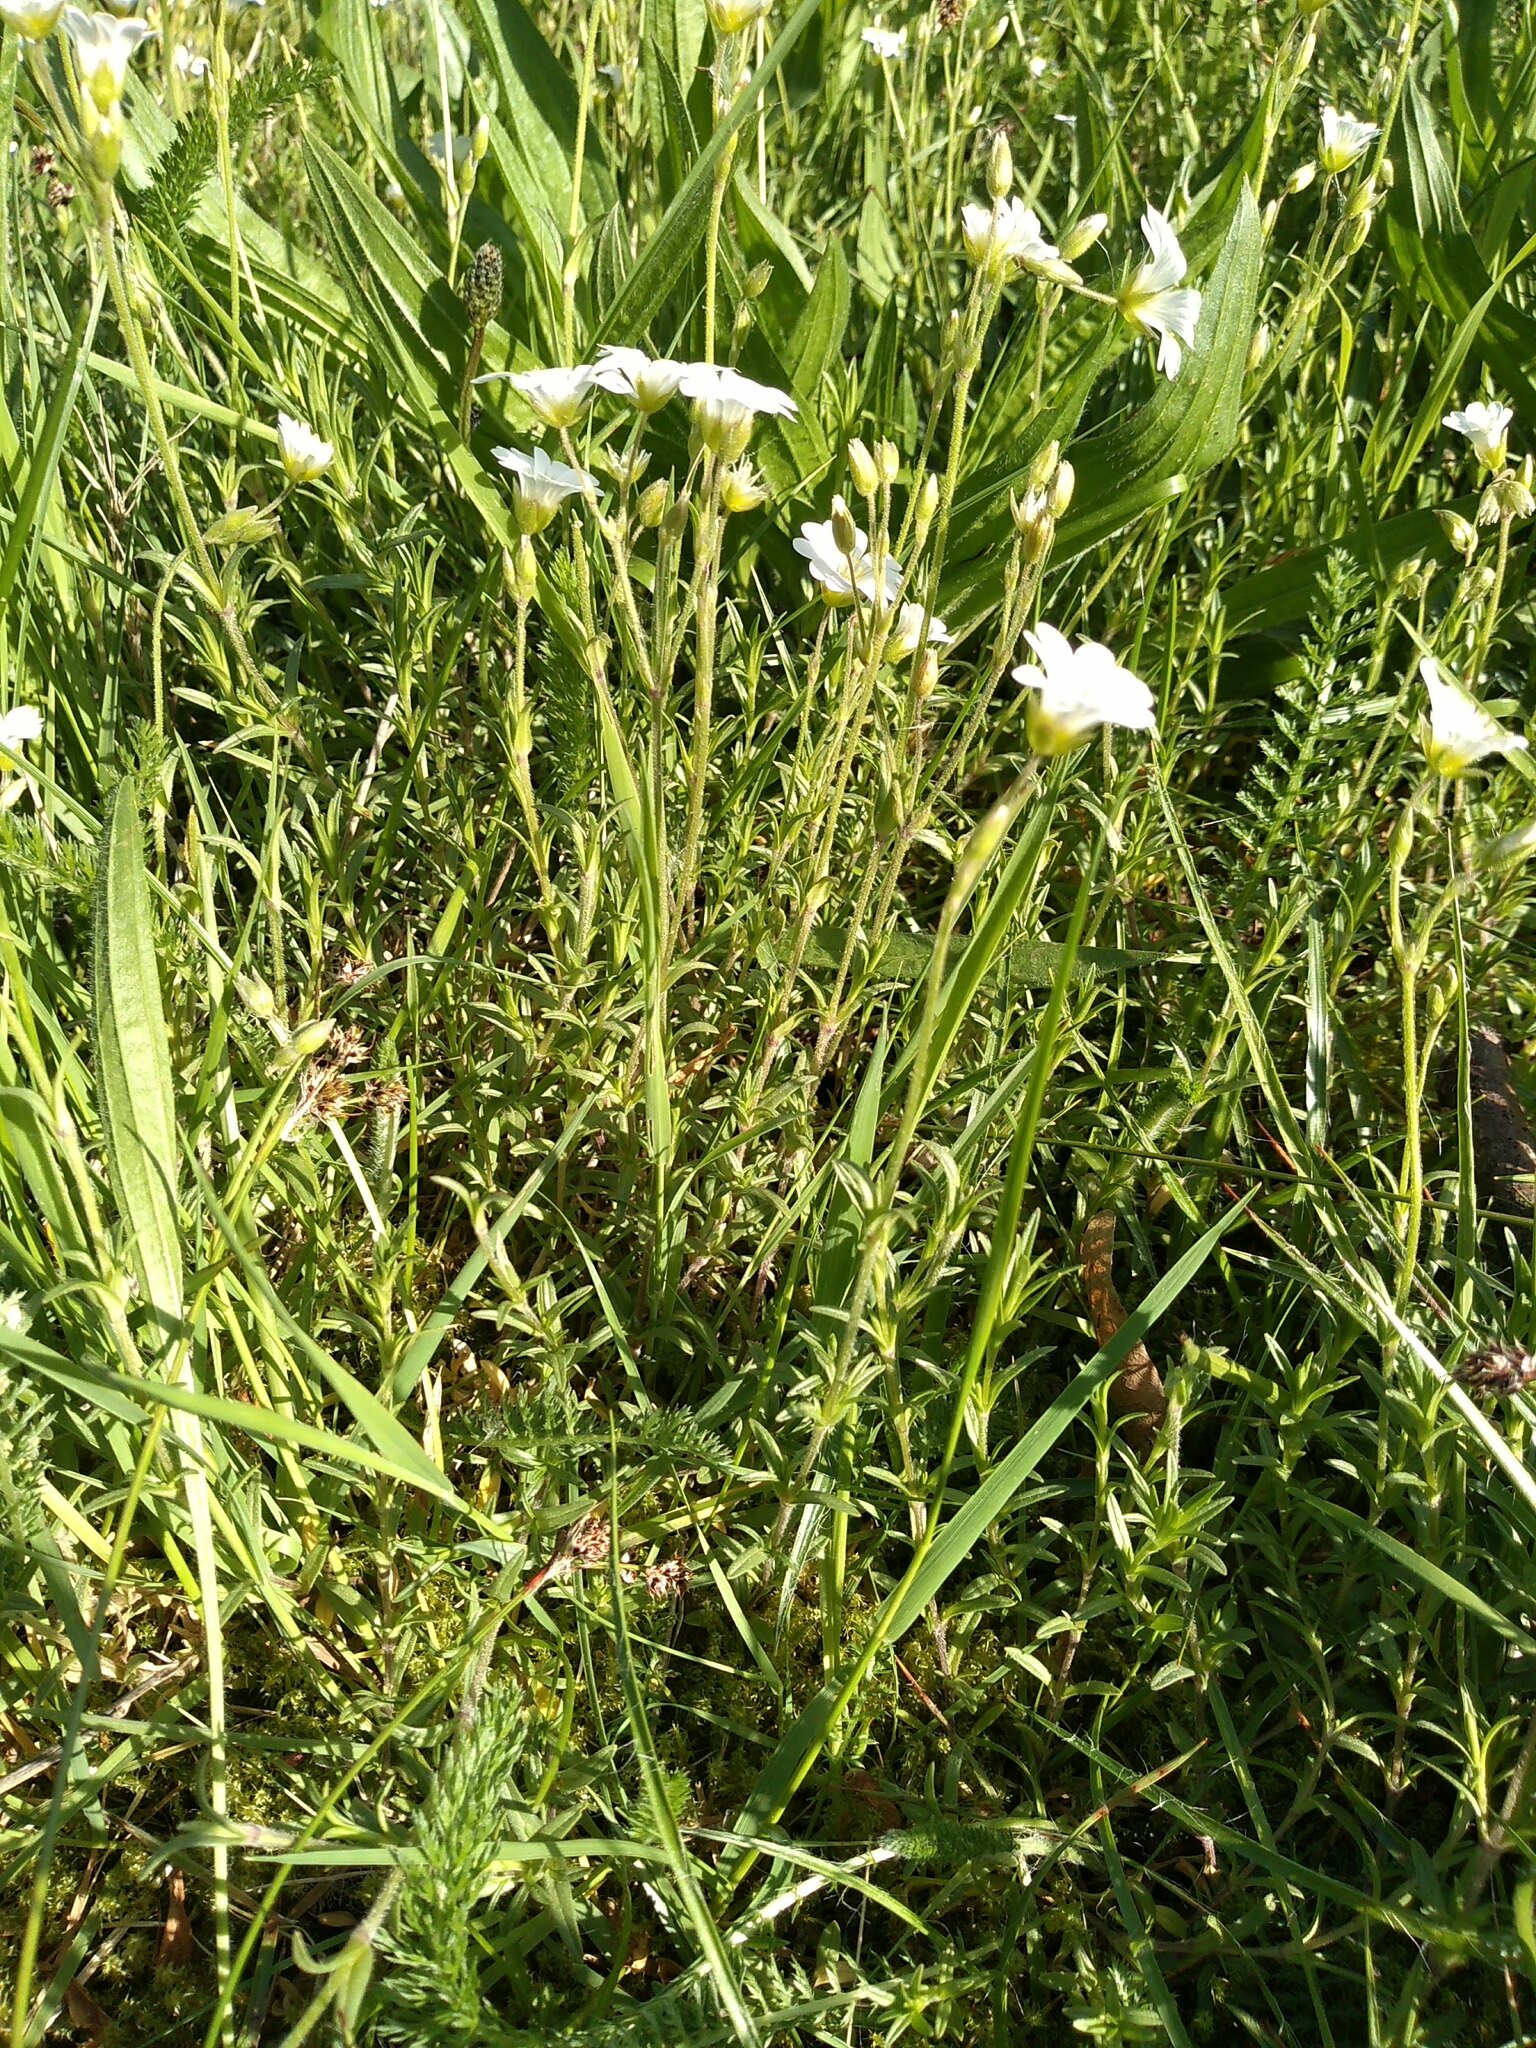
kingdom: Plantae
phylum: Tracheophyta
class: Magnoliopsida
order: Caryophyllales
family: Caryophyllaceae
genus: Cerastium
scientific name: Cerastium arvense
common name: Field mouse-ear
